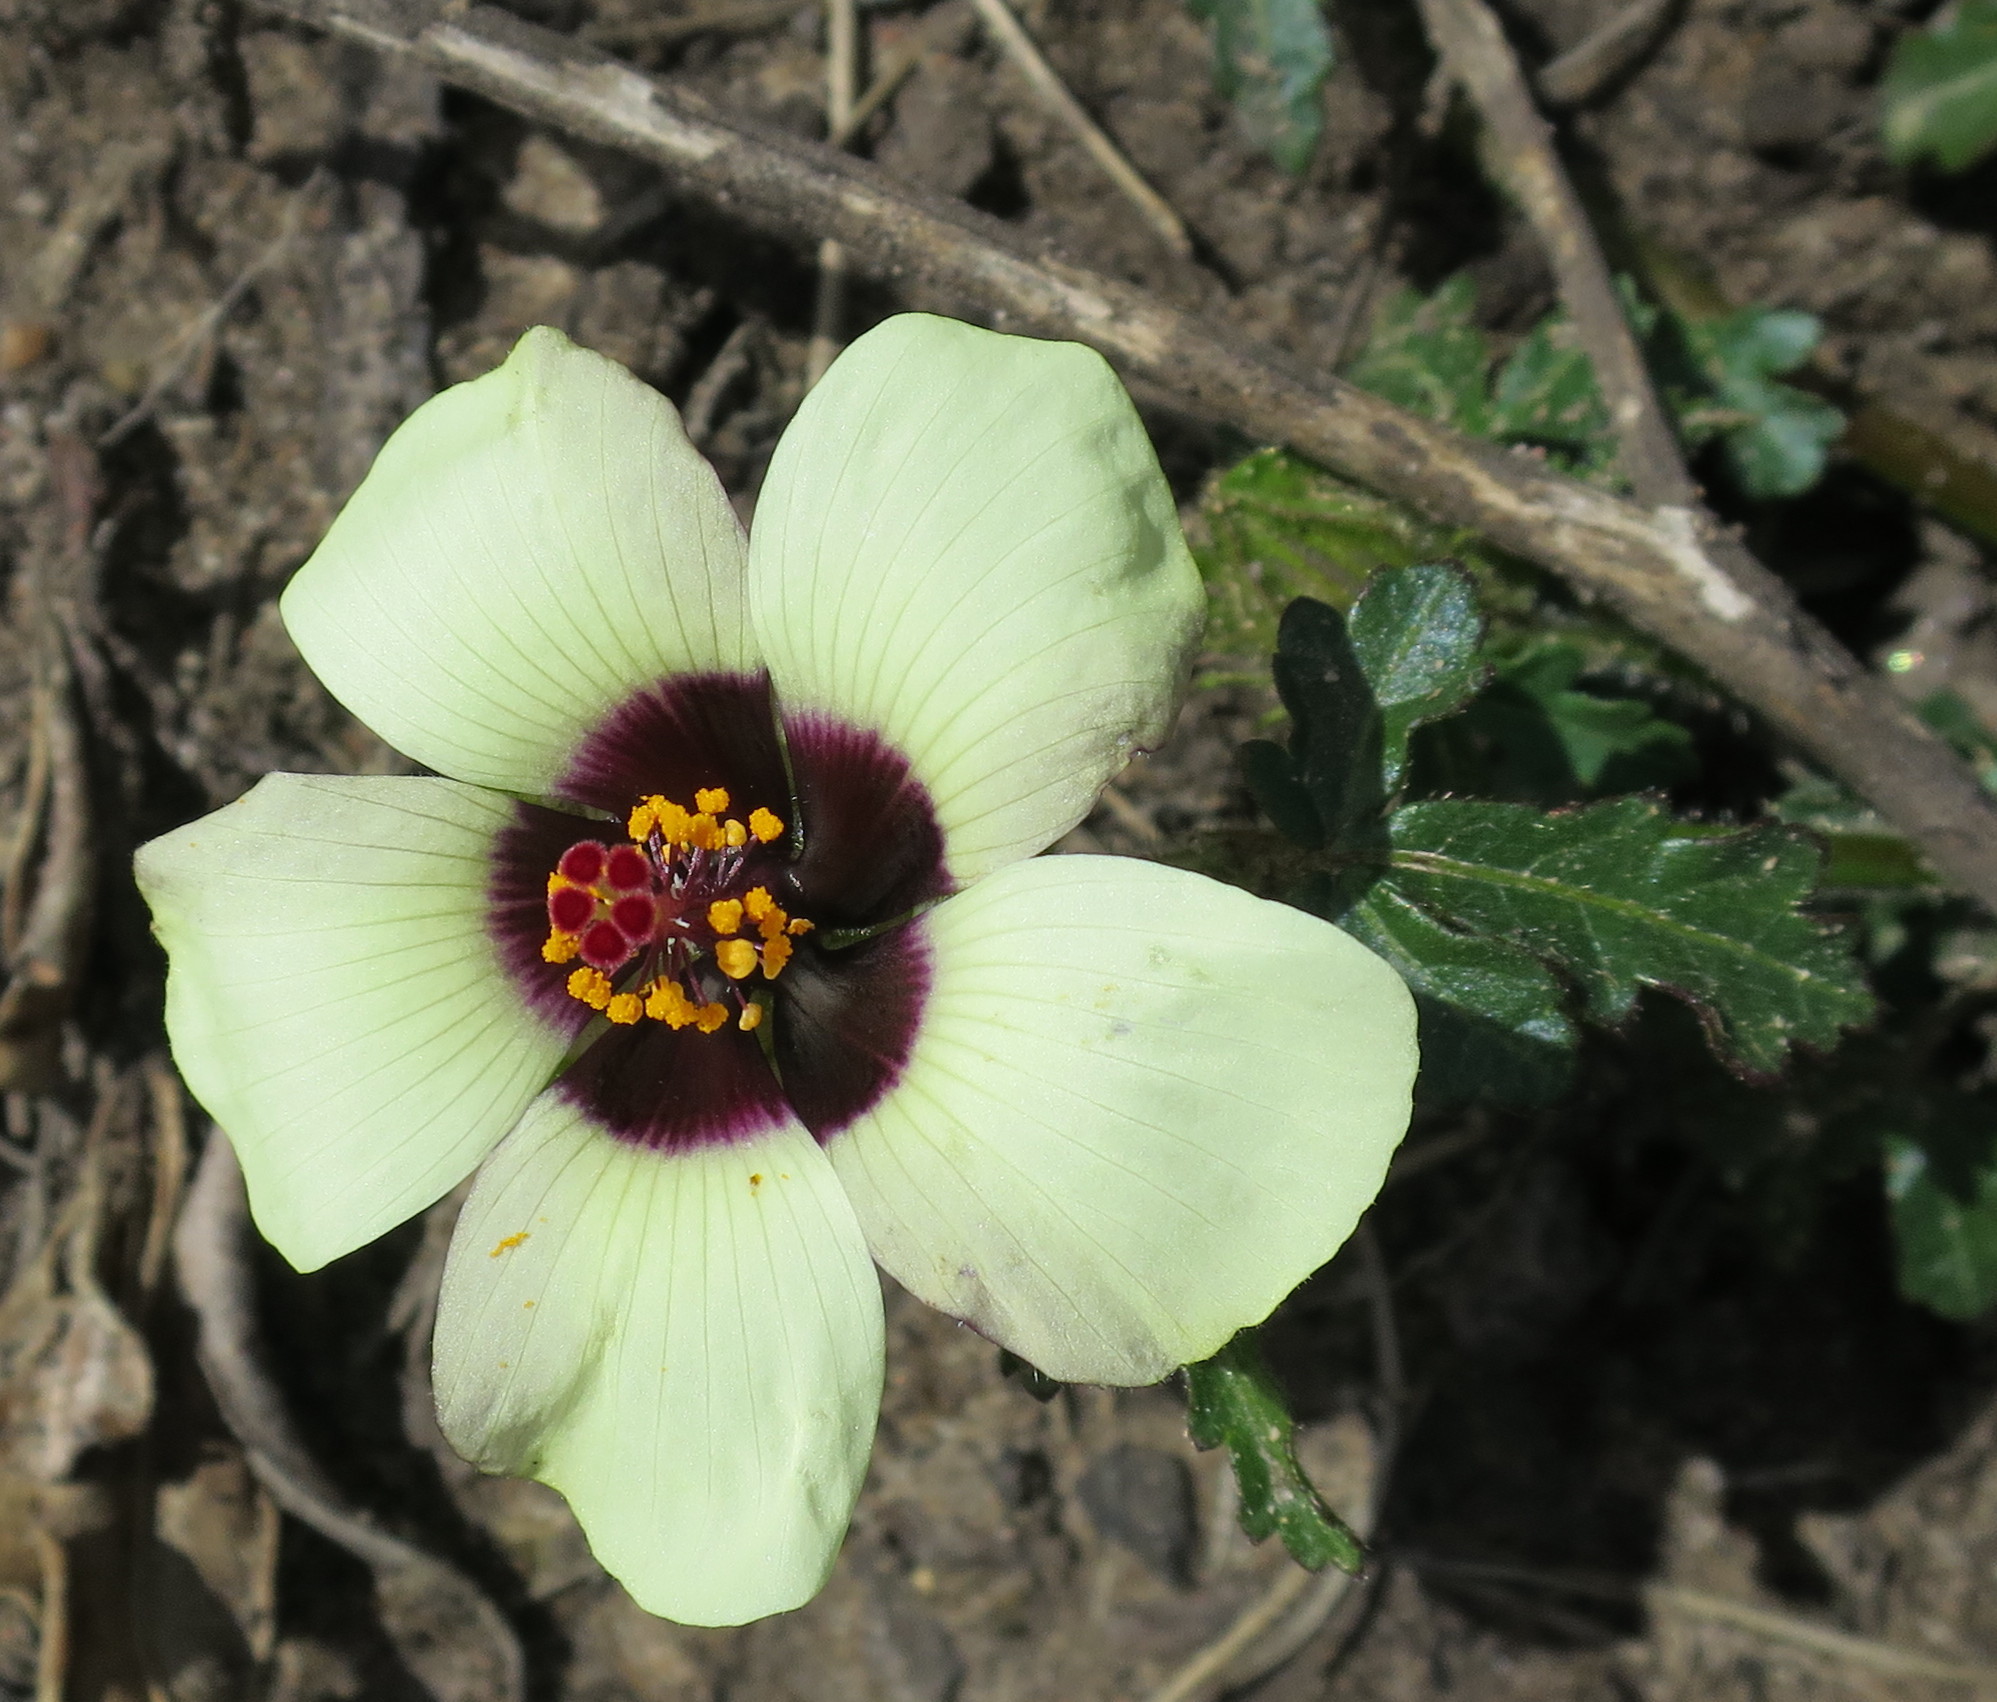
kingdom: Plantae
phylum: Tracheophyta
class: Magnoliopsida
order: Malvales
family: Malvaceae
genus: Hibiscus
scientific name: Hibiscus trionum
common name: Bladder ketmia
